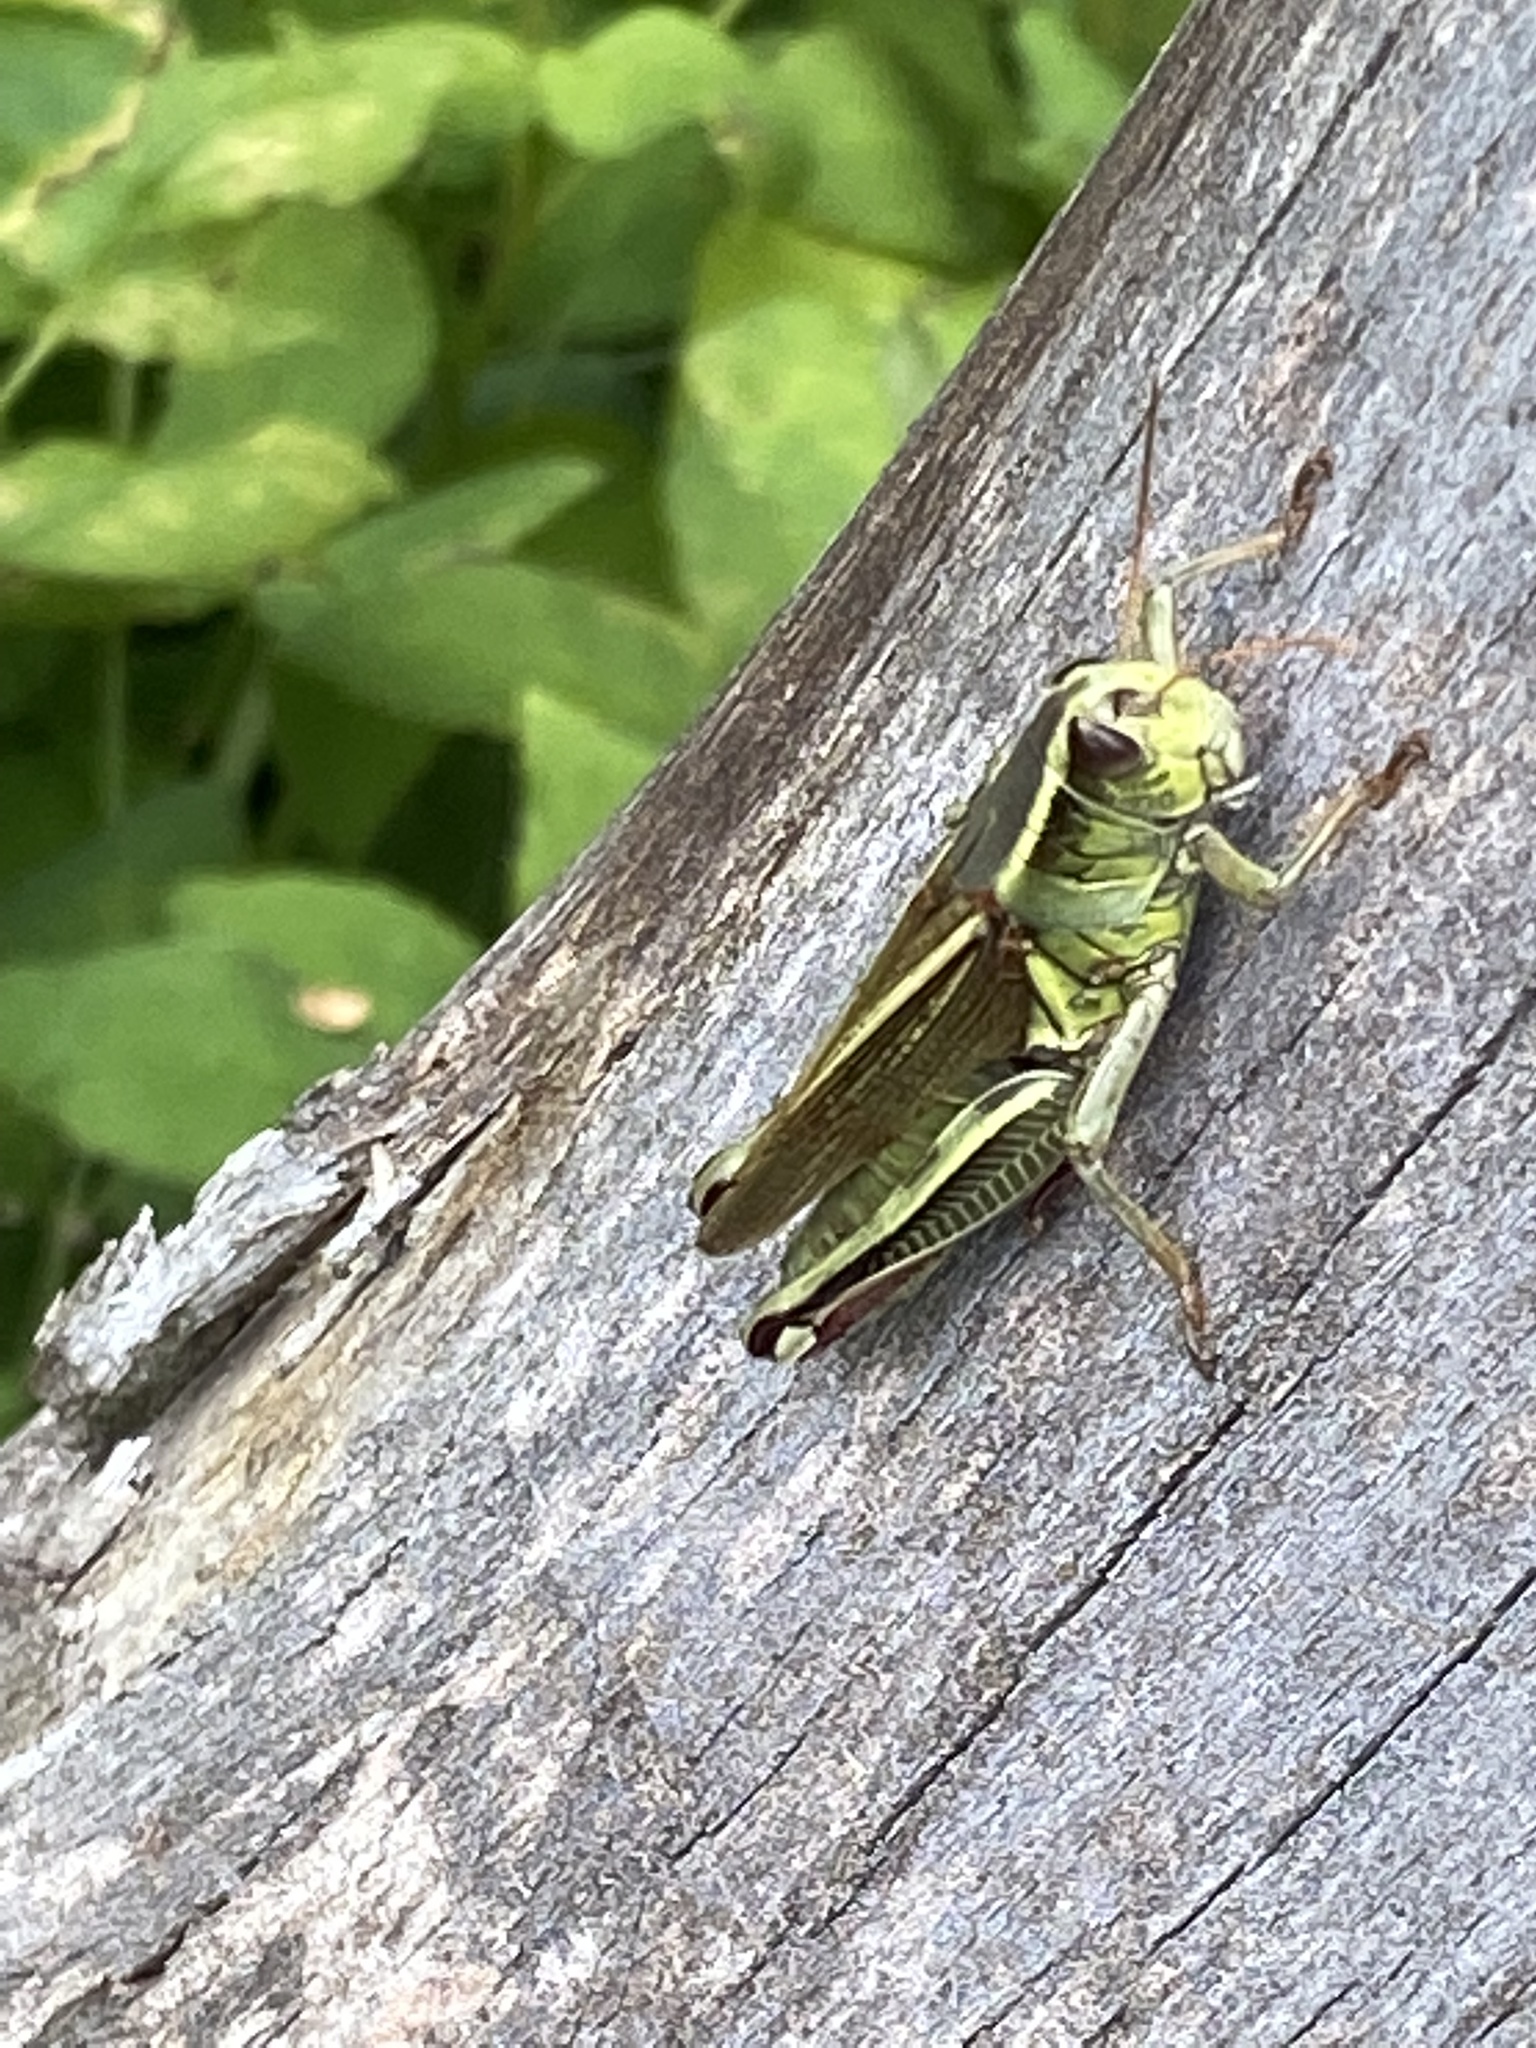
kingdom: Animalia
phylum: Arthropoda
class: Insecta
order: Orthoptera
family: Acrididae
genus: Melanoplus
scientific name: Melanoplus bivittatus
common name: Two-striped grasshopper
